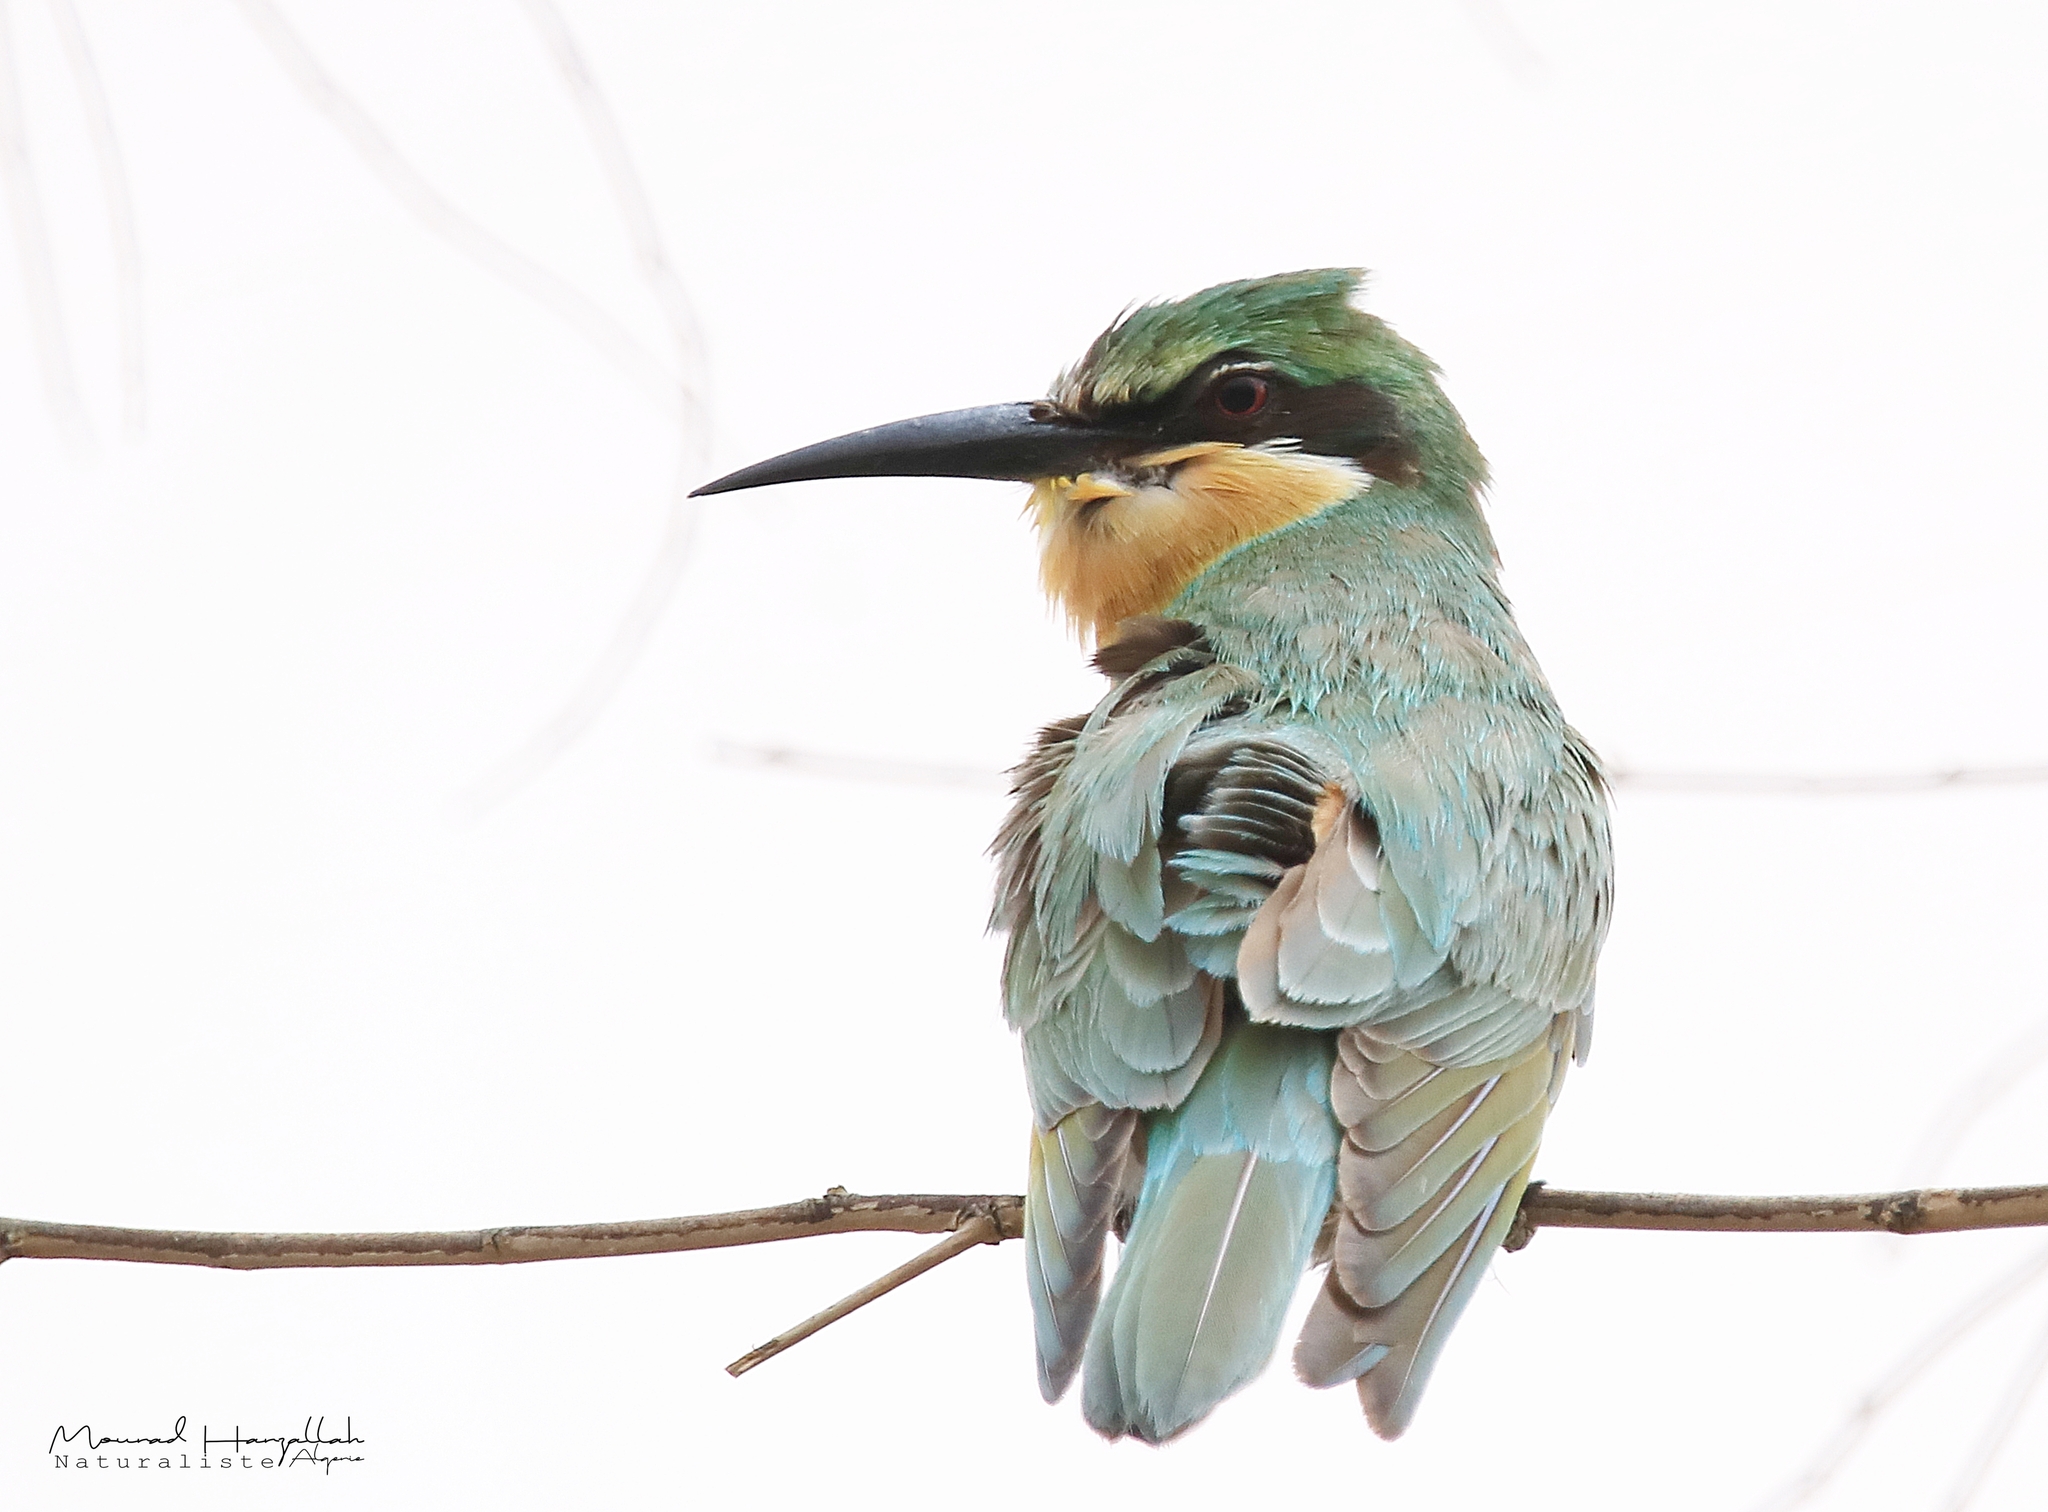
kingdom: Animalia
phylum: Chordata
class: Aves
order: Coraciiformes
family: Meropidae
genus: Merops
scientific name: Merops persicus
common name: Blue-cheeked bee-eater
